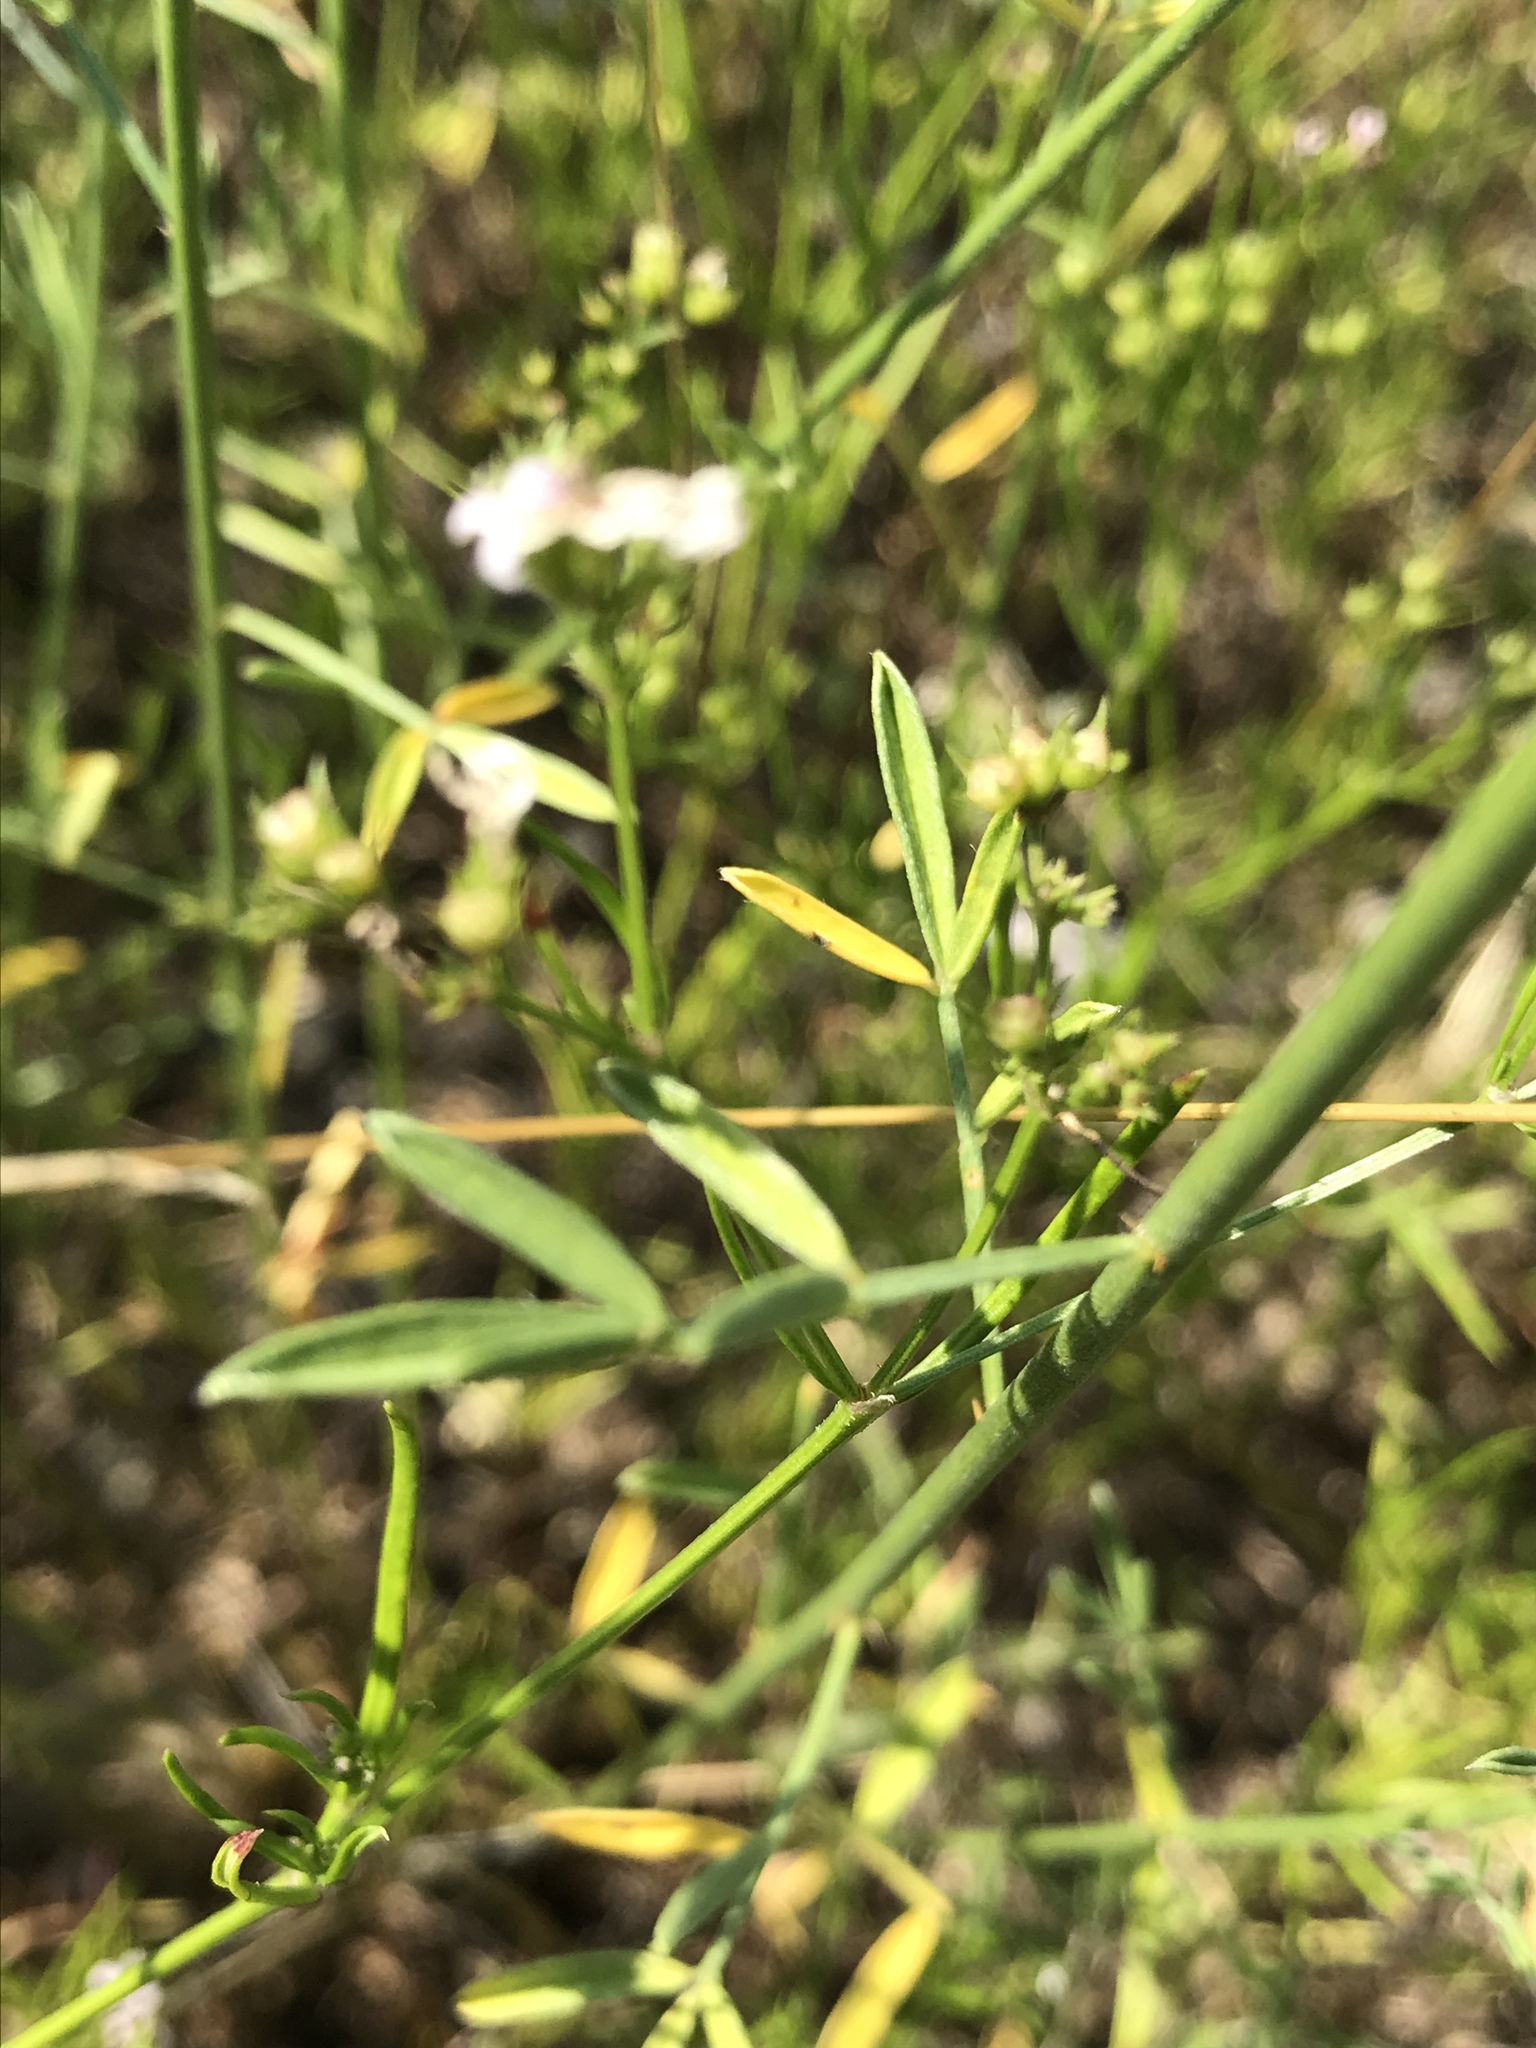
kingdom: Plantae
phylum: Tracheophyta
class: Magnoliopsida
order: Fabales
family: Fabaceae
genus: Dalea
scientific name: Dalea aurea
